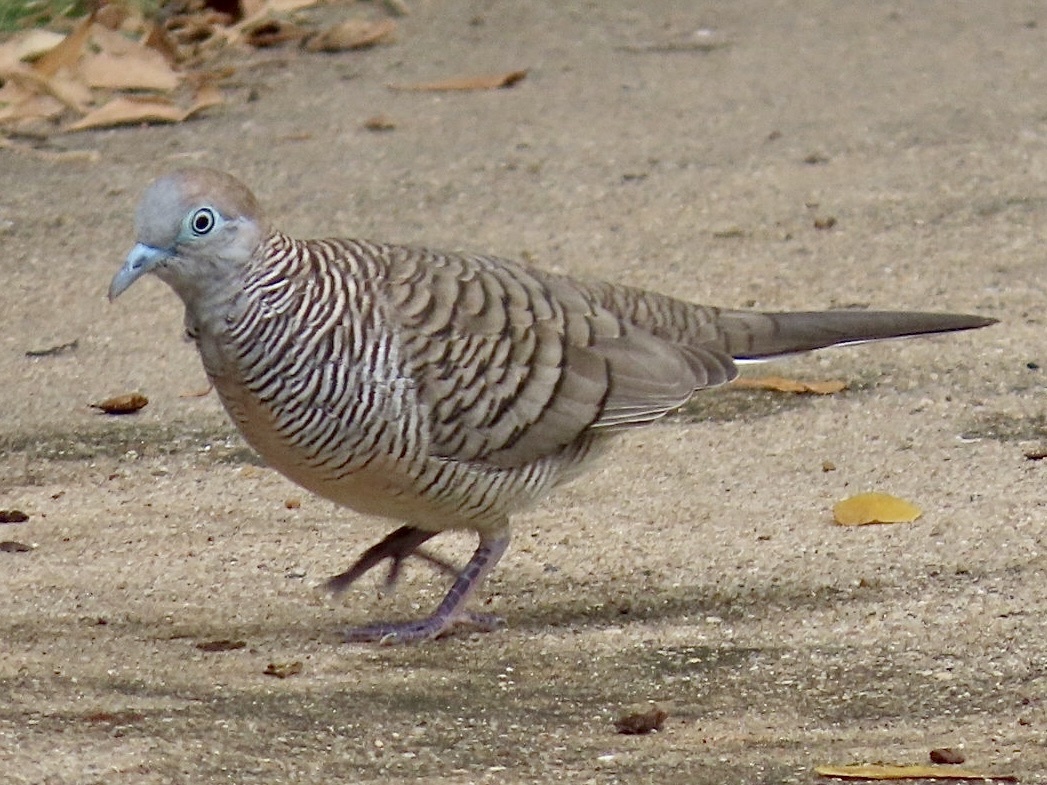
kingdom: Animalia
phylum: Chordata
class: Aves
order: Columbiformes
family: Columbidae
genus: Geopelia
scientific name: Geopelia striata
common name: Zebra dove
